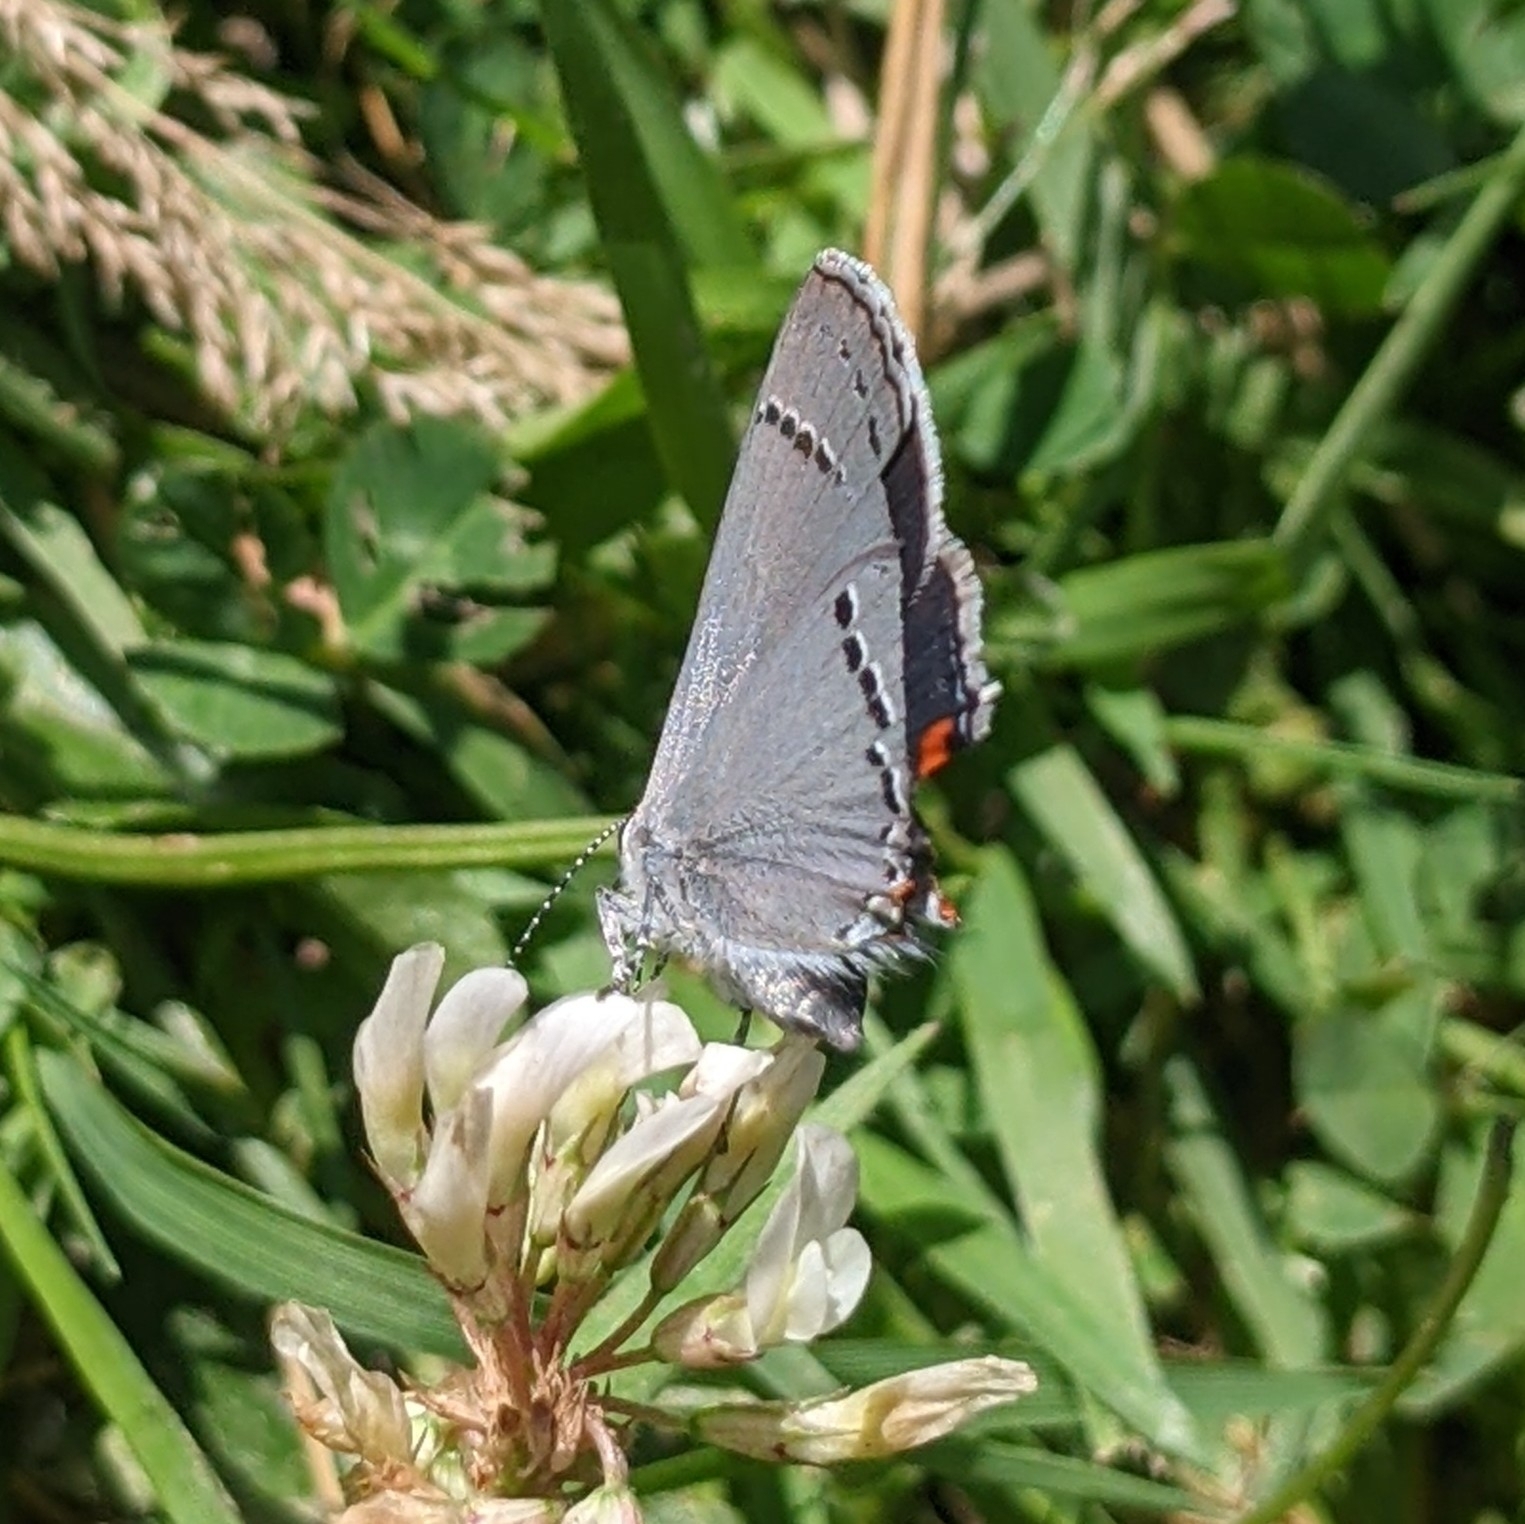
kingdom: Animalia
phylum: Arthropoda
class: Insecta
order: Lepidoptera
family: Lycaenidae
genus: Strymon
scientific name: Strymon melinus
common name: Gray hairstreak
